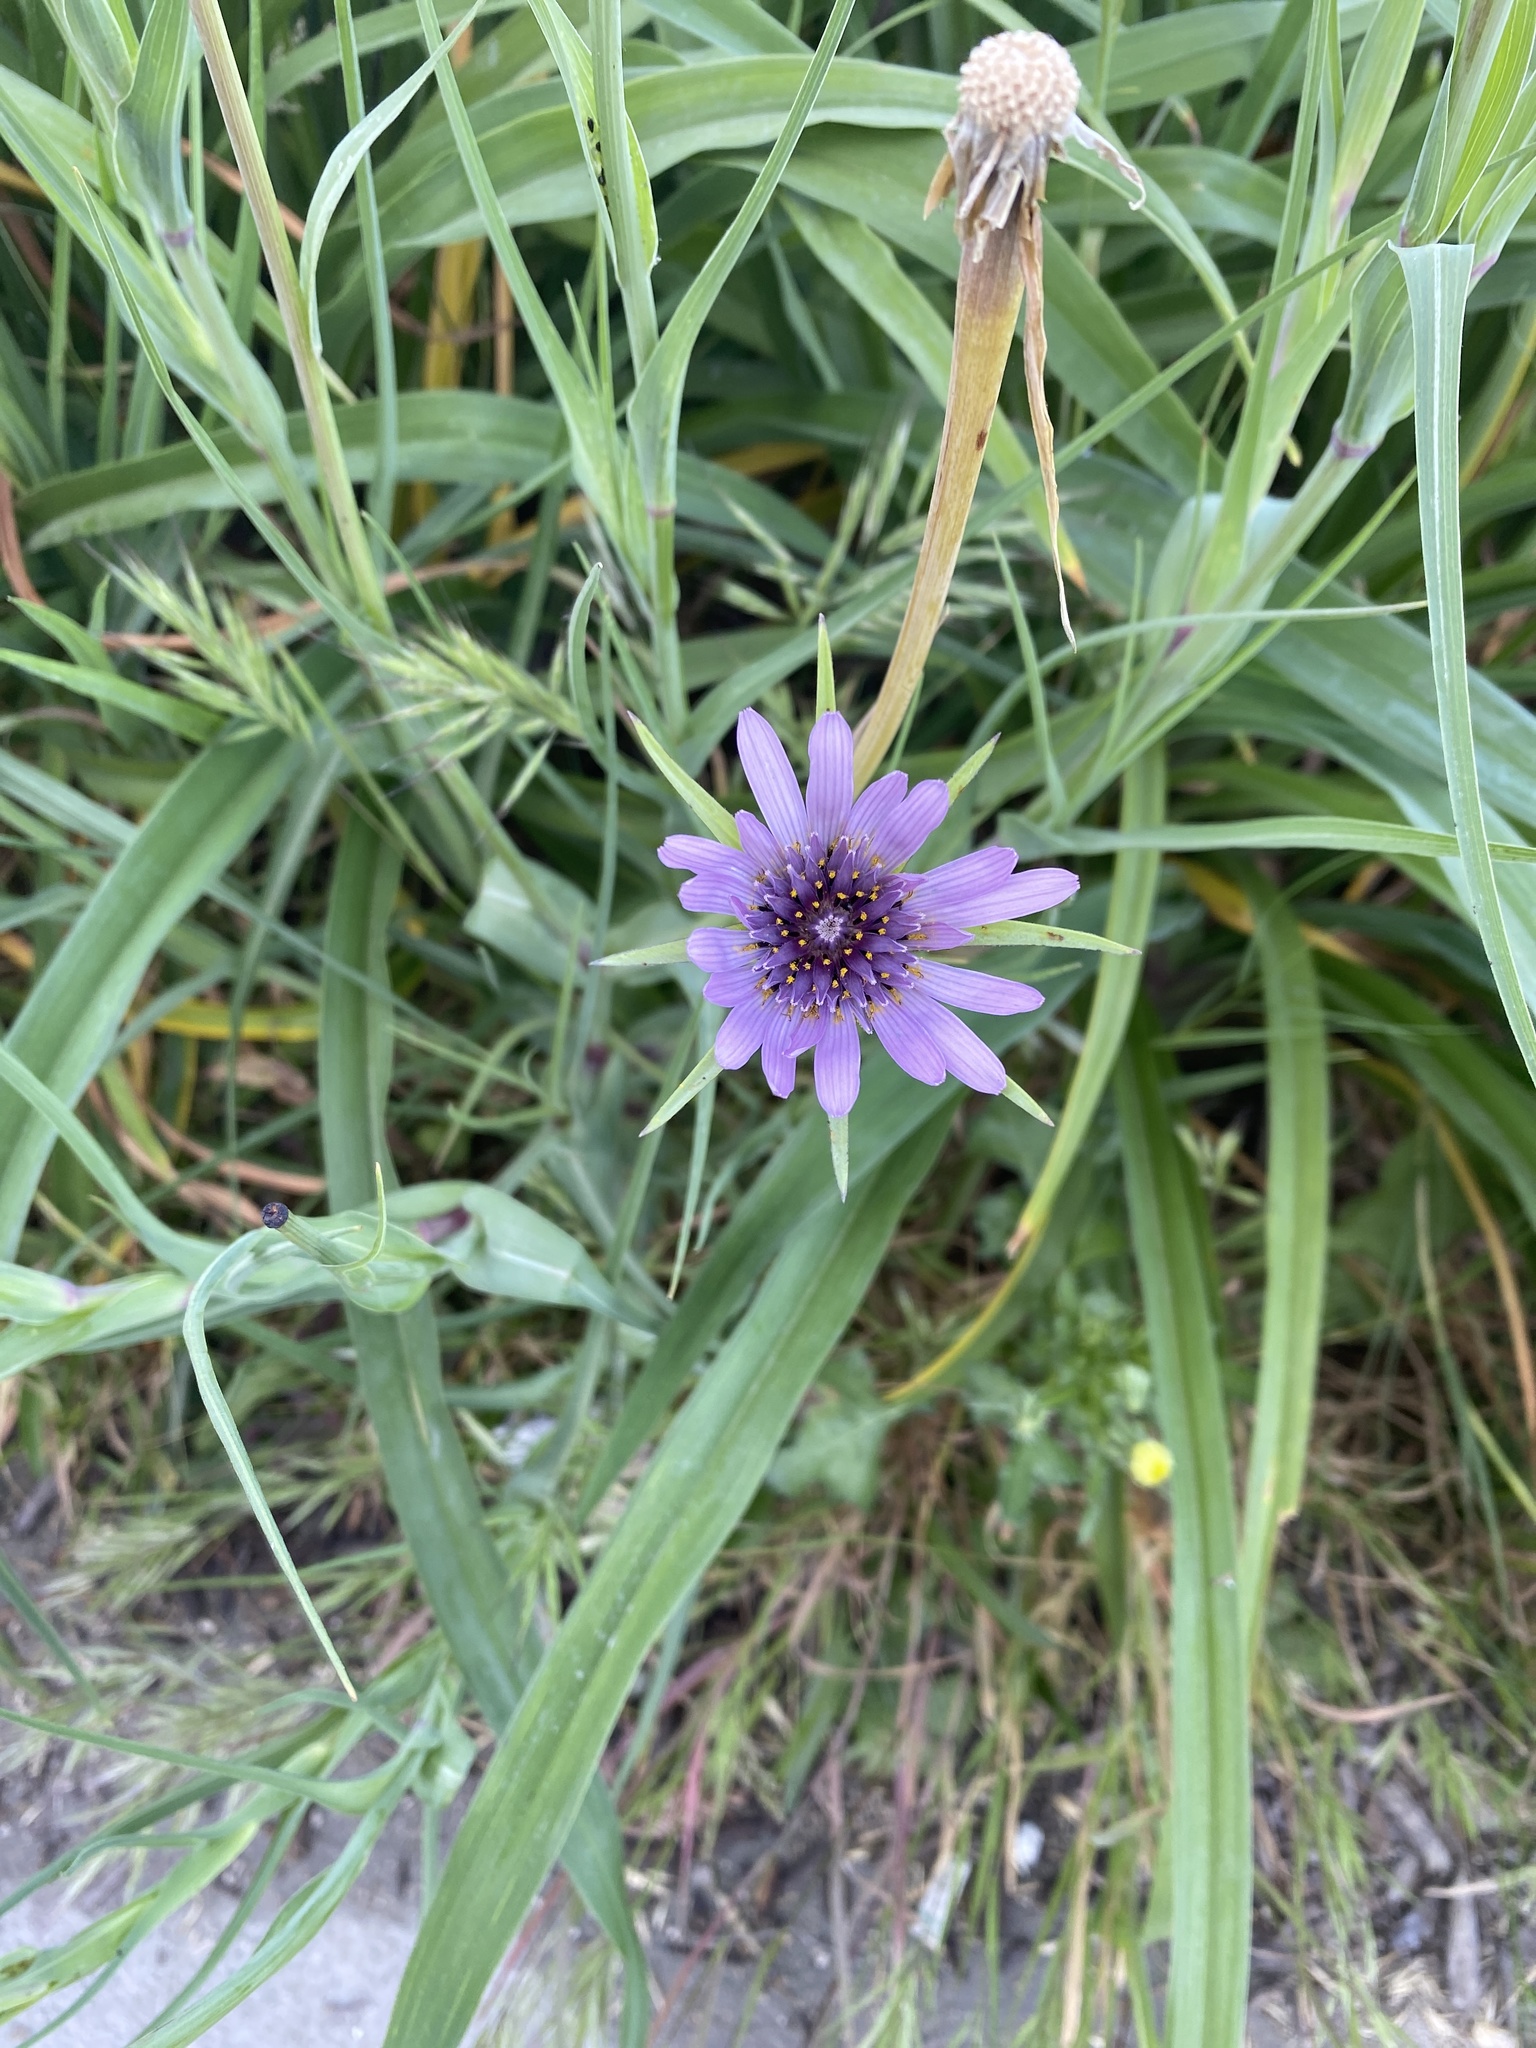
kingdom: Plantae
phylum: Tracheophyta
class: Magnoliopsida
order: Asterales
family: Asteraceae
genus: Tragopogon
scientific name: Tragopogon porrifolius
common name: Salsify
